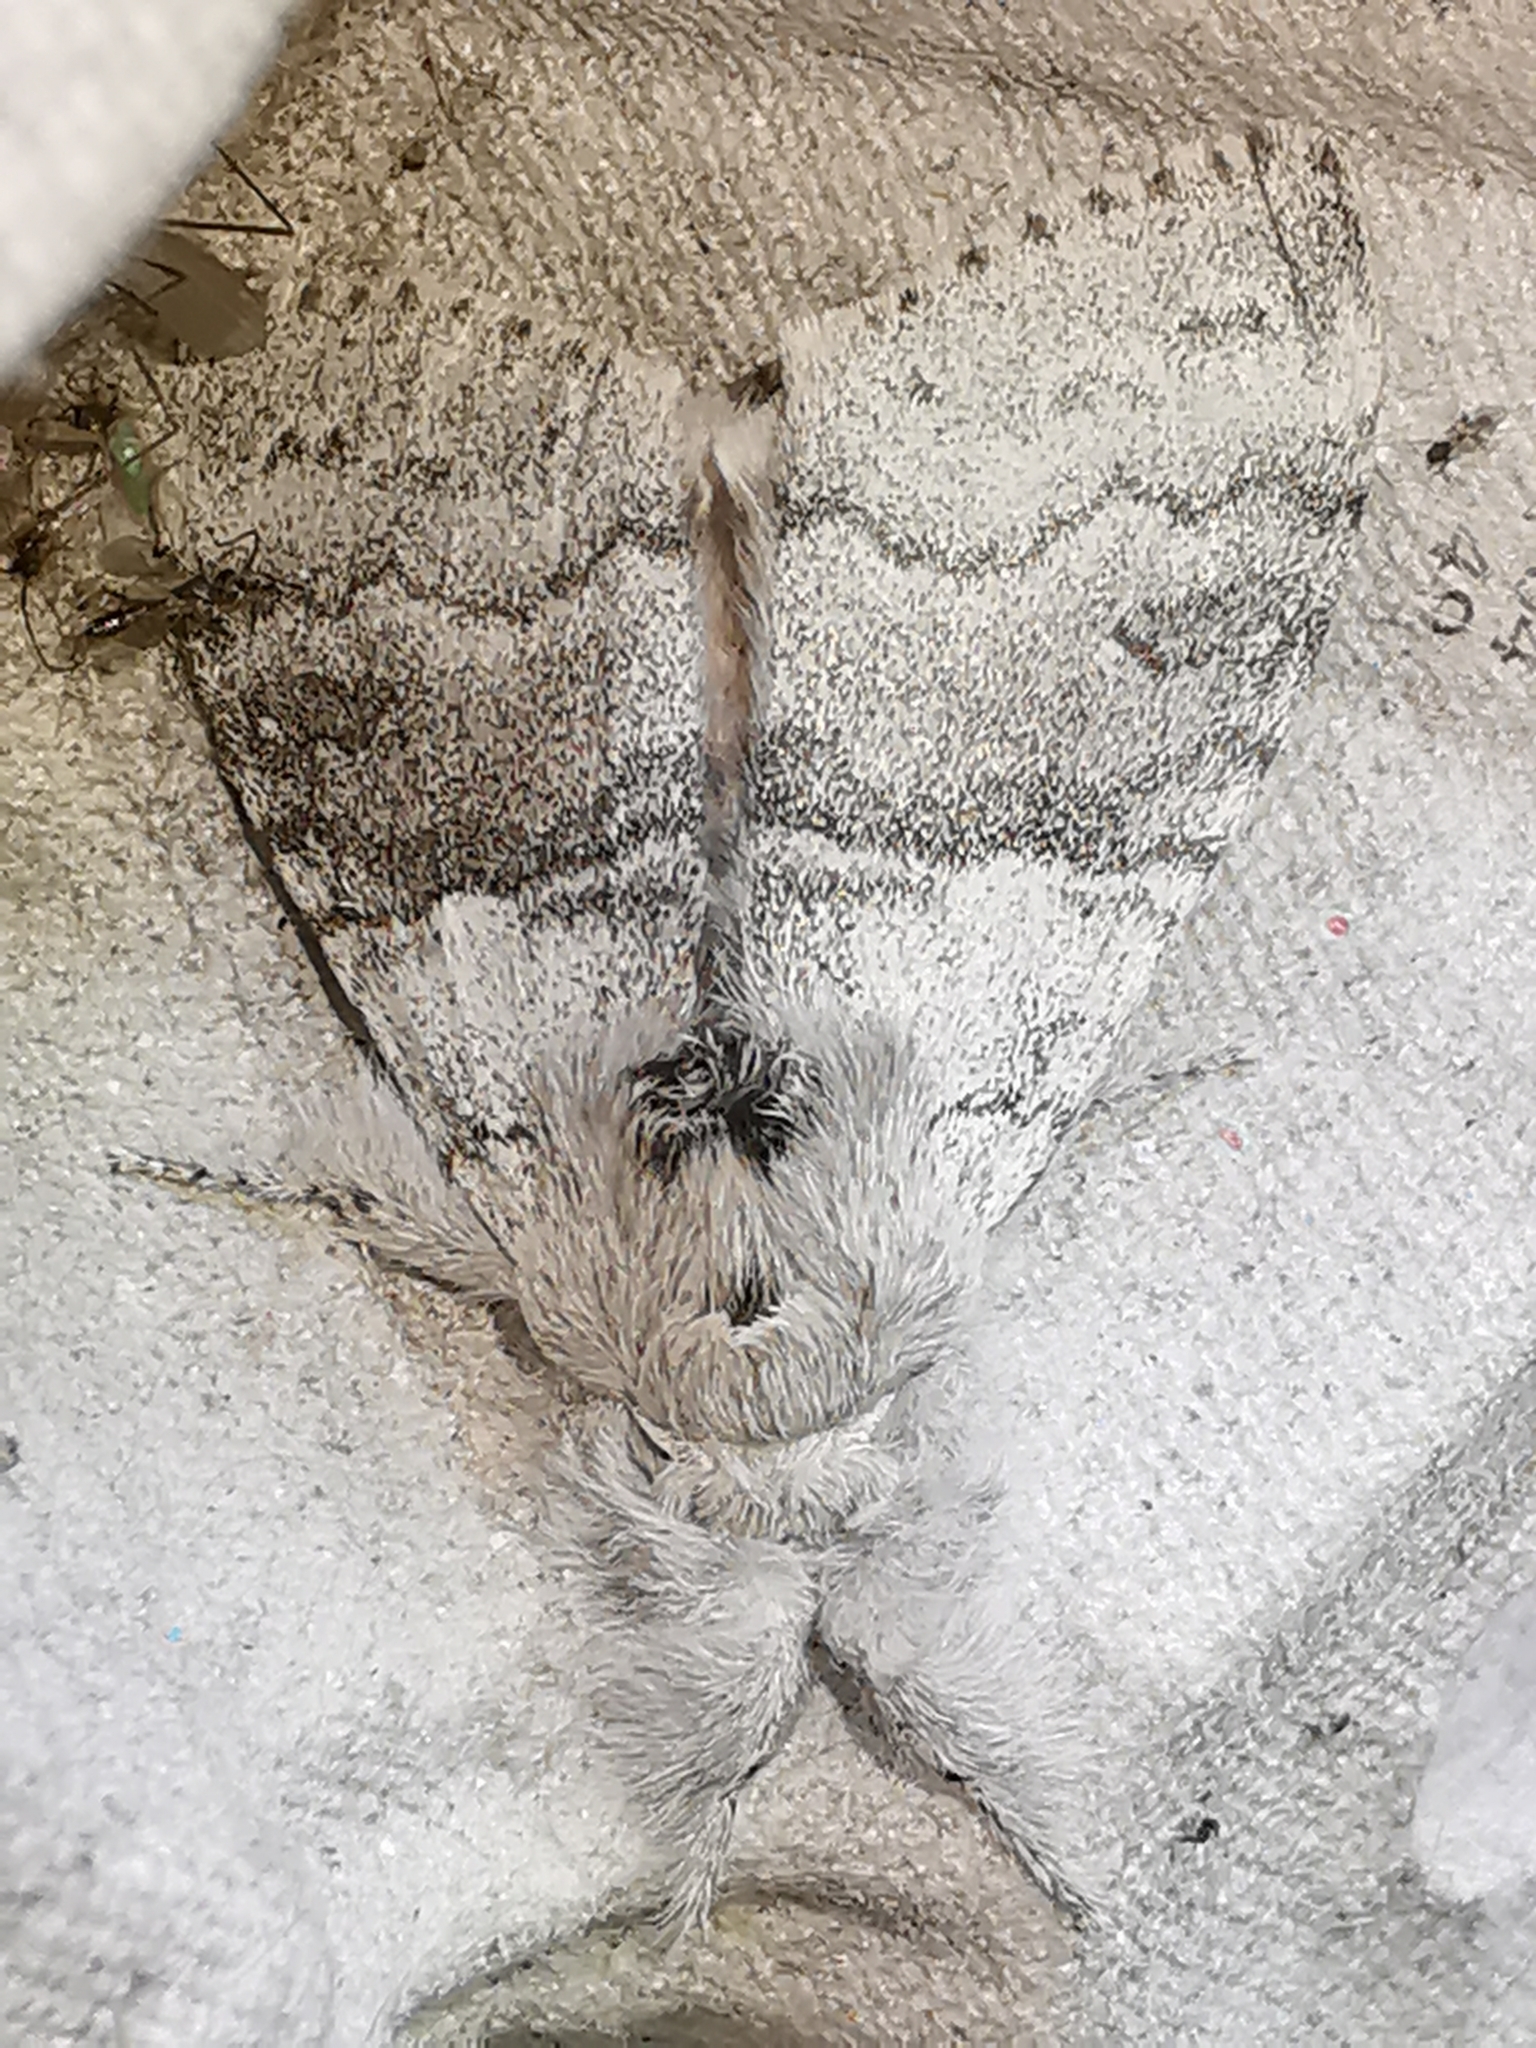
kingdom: Animalia
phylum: Arthropoda
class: Insecta
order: Lepidoptera
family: Erebidae
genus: Calliteara
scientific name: Calliteara pudibunda
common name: Pale tussock
